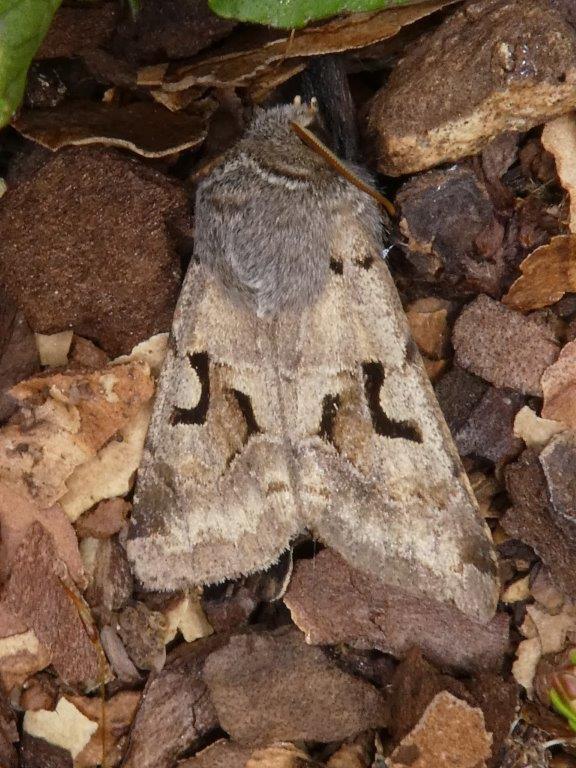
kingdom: Animalia
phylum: Arthropoda
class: Insecta
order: Lepidoptera
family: Noctuidae
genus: Orthosia
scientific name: Orthosia gothica
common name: Hebrew character
